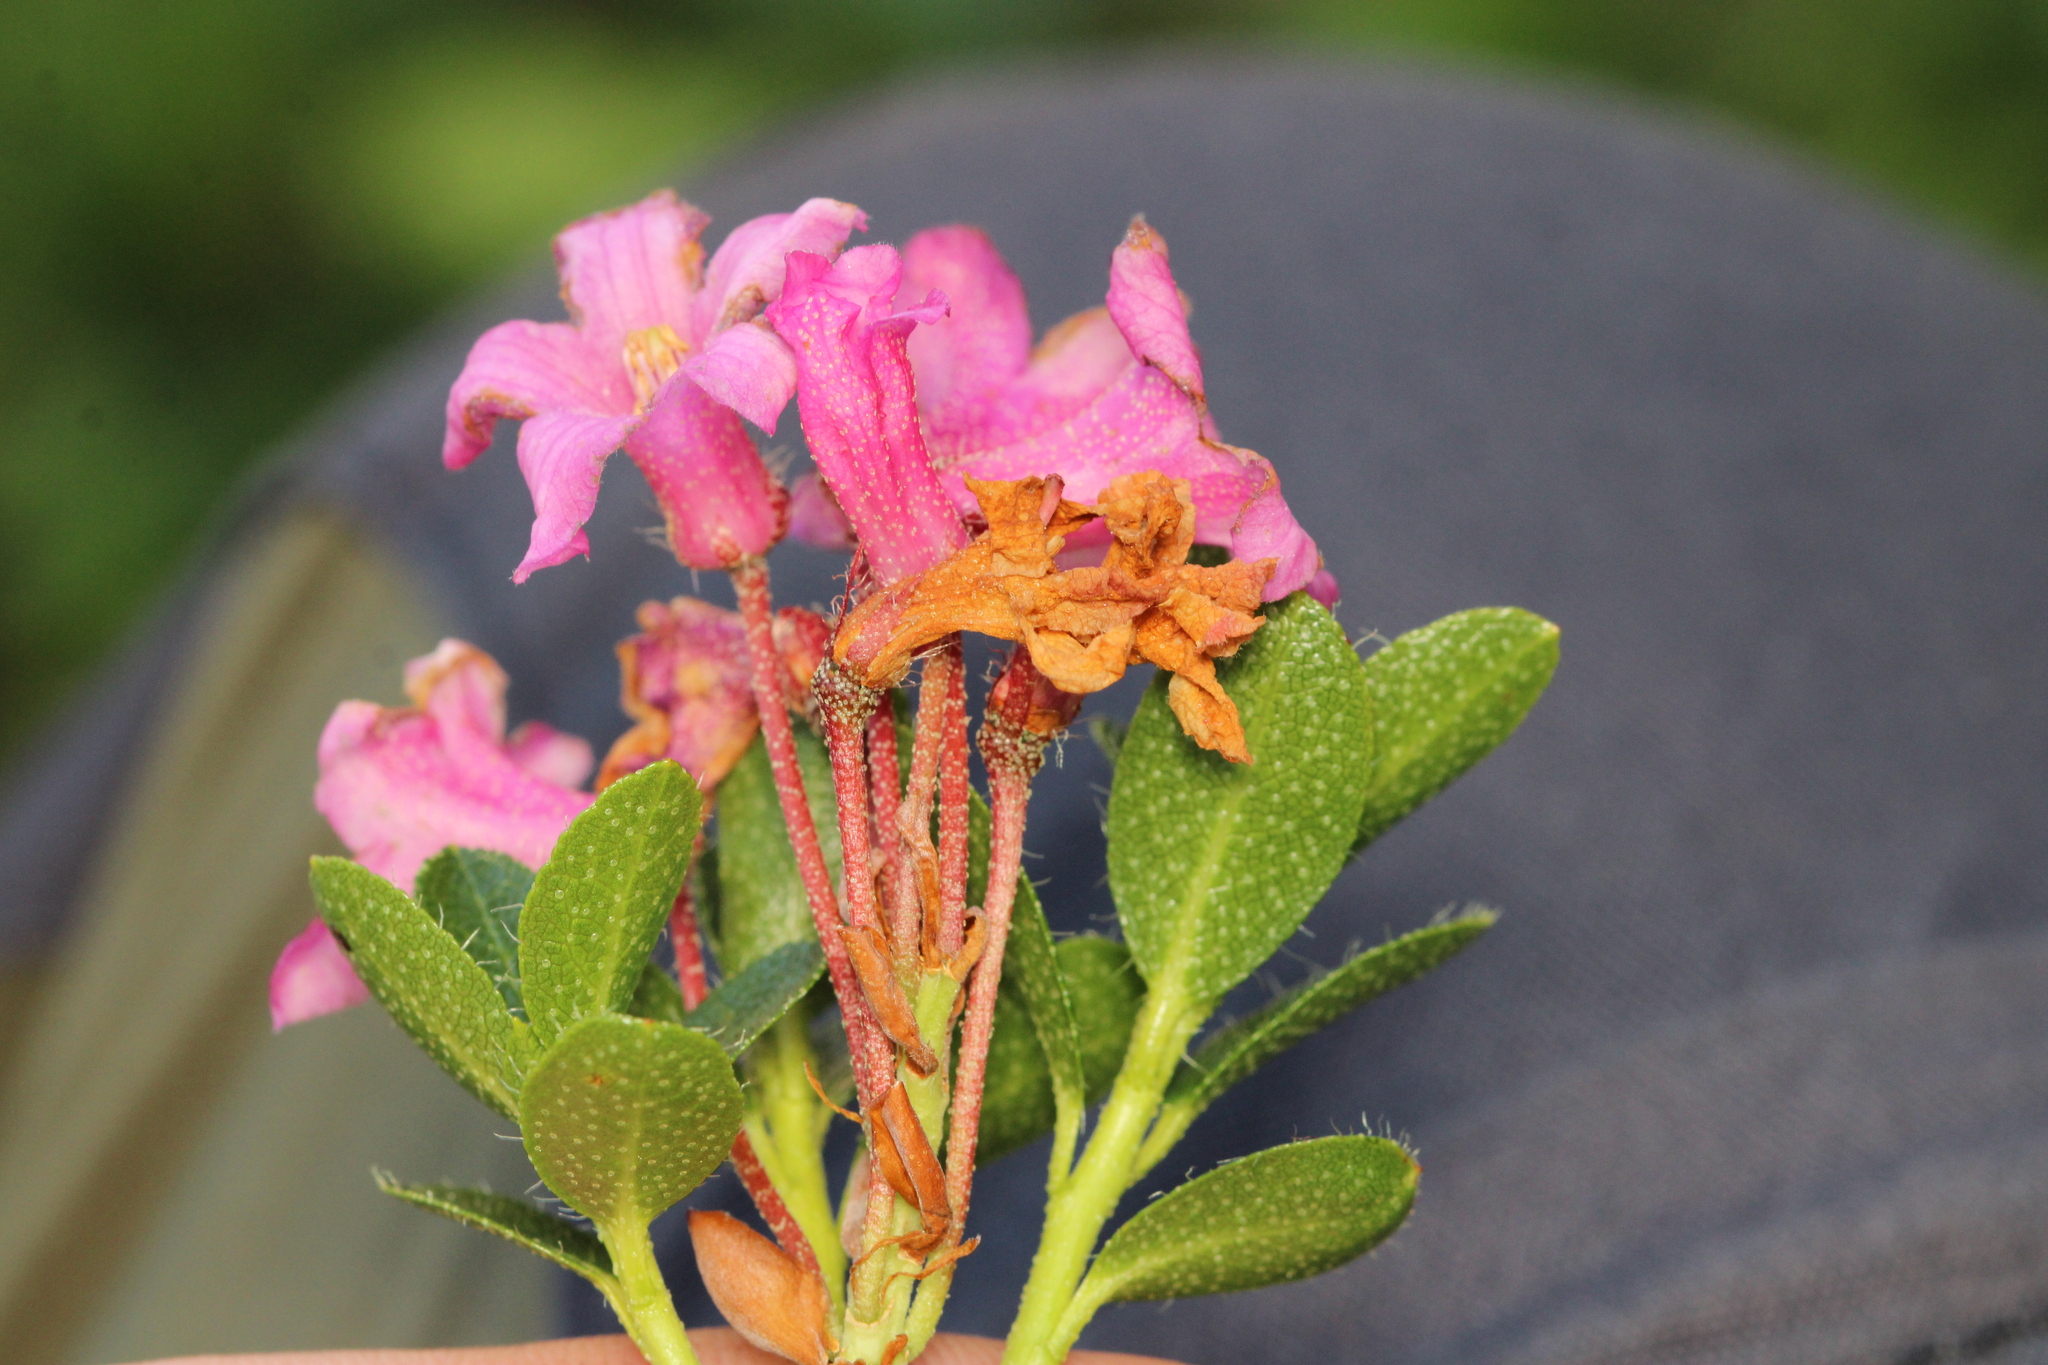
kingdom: Plantae
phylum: Tracheophyta
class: Magnoliopsida
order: Ericales
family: Ericaceae
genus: Rhododendron
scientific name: Rhododendron hirsutum
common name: Hairy alpenrose
